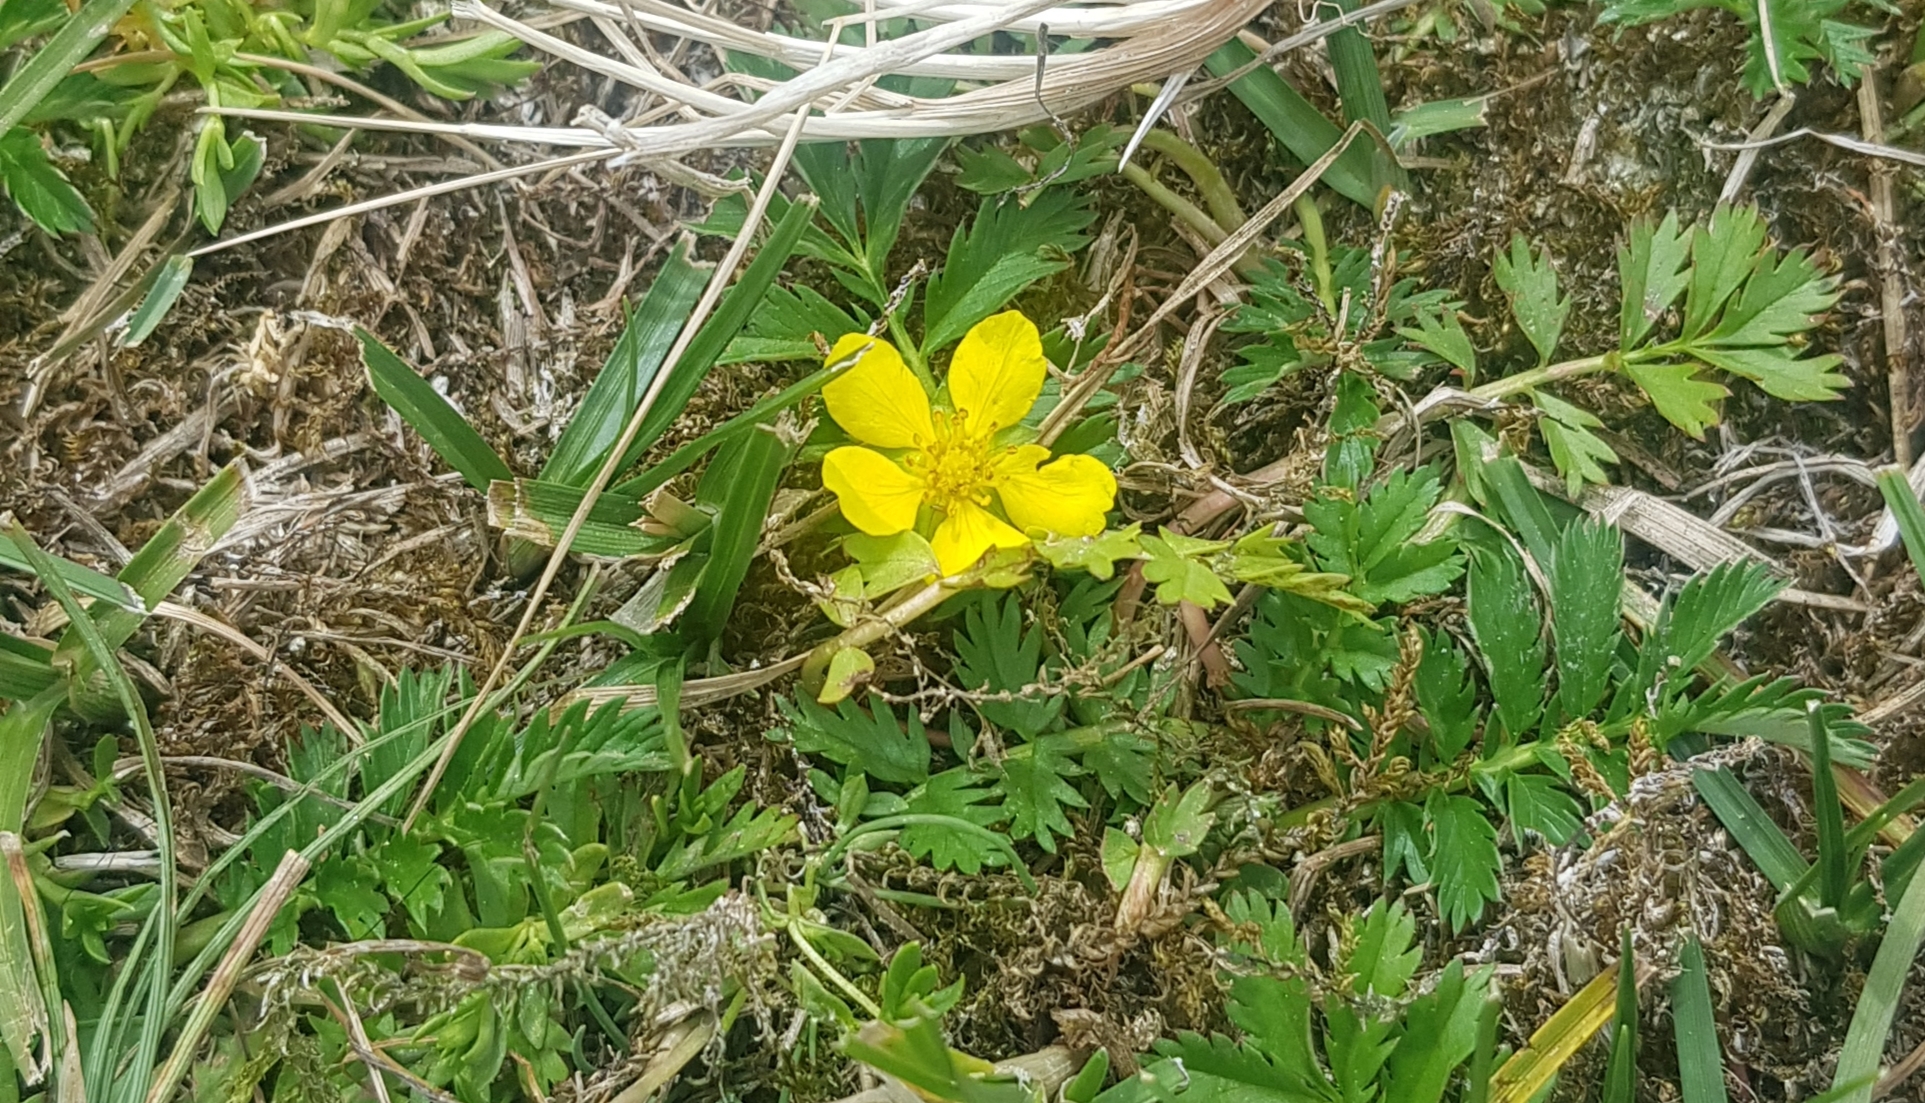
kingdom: Plantae
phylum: Tracheophyta
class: Magnoliopsida
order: Rosales
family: Rosaceae
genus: Argentina
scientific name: Argentina anserina
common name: Common silverweed
